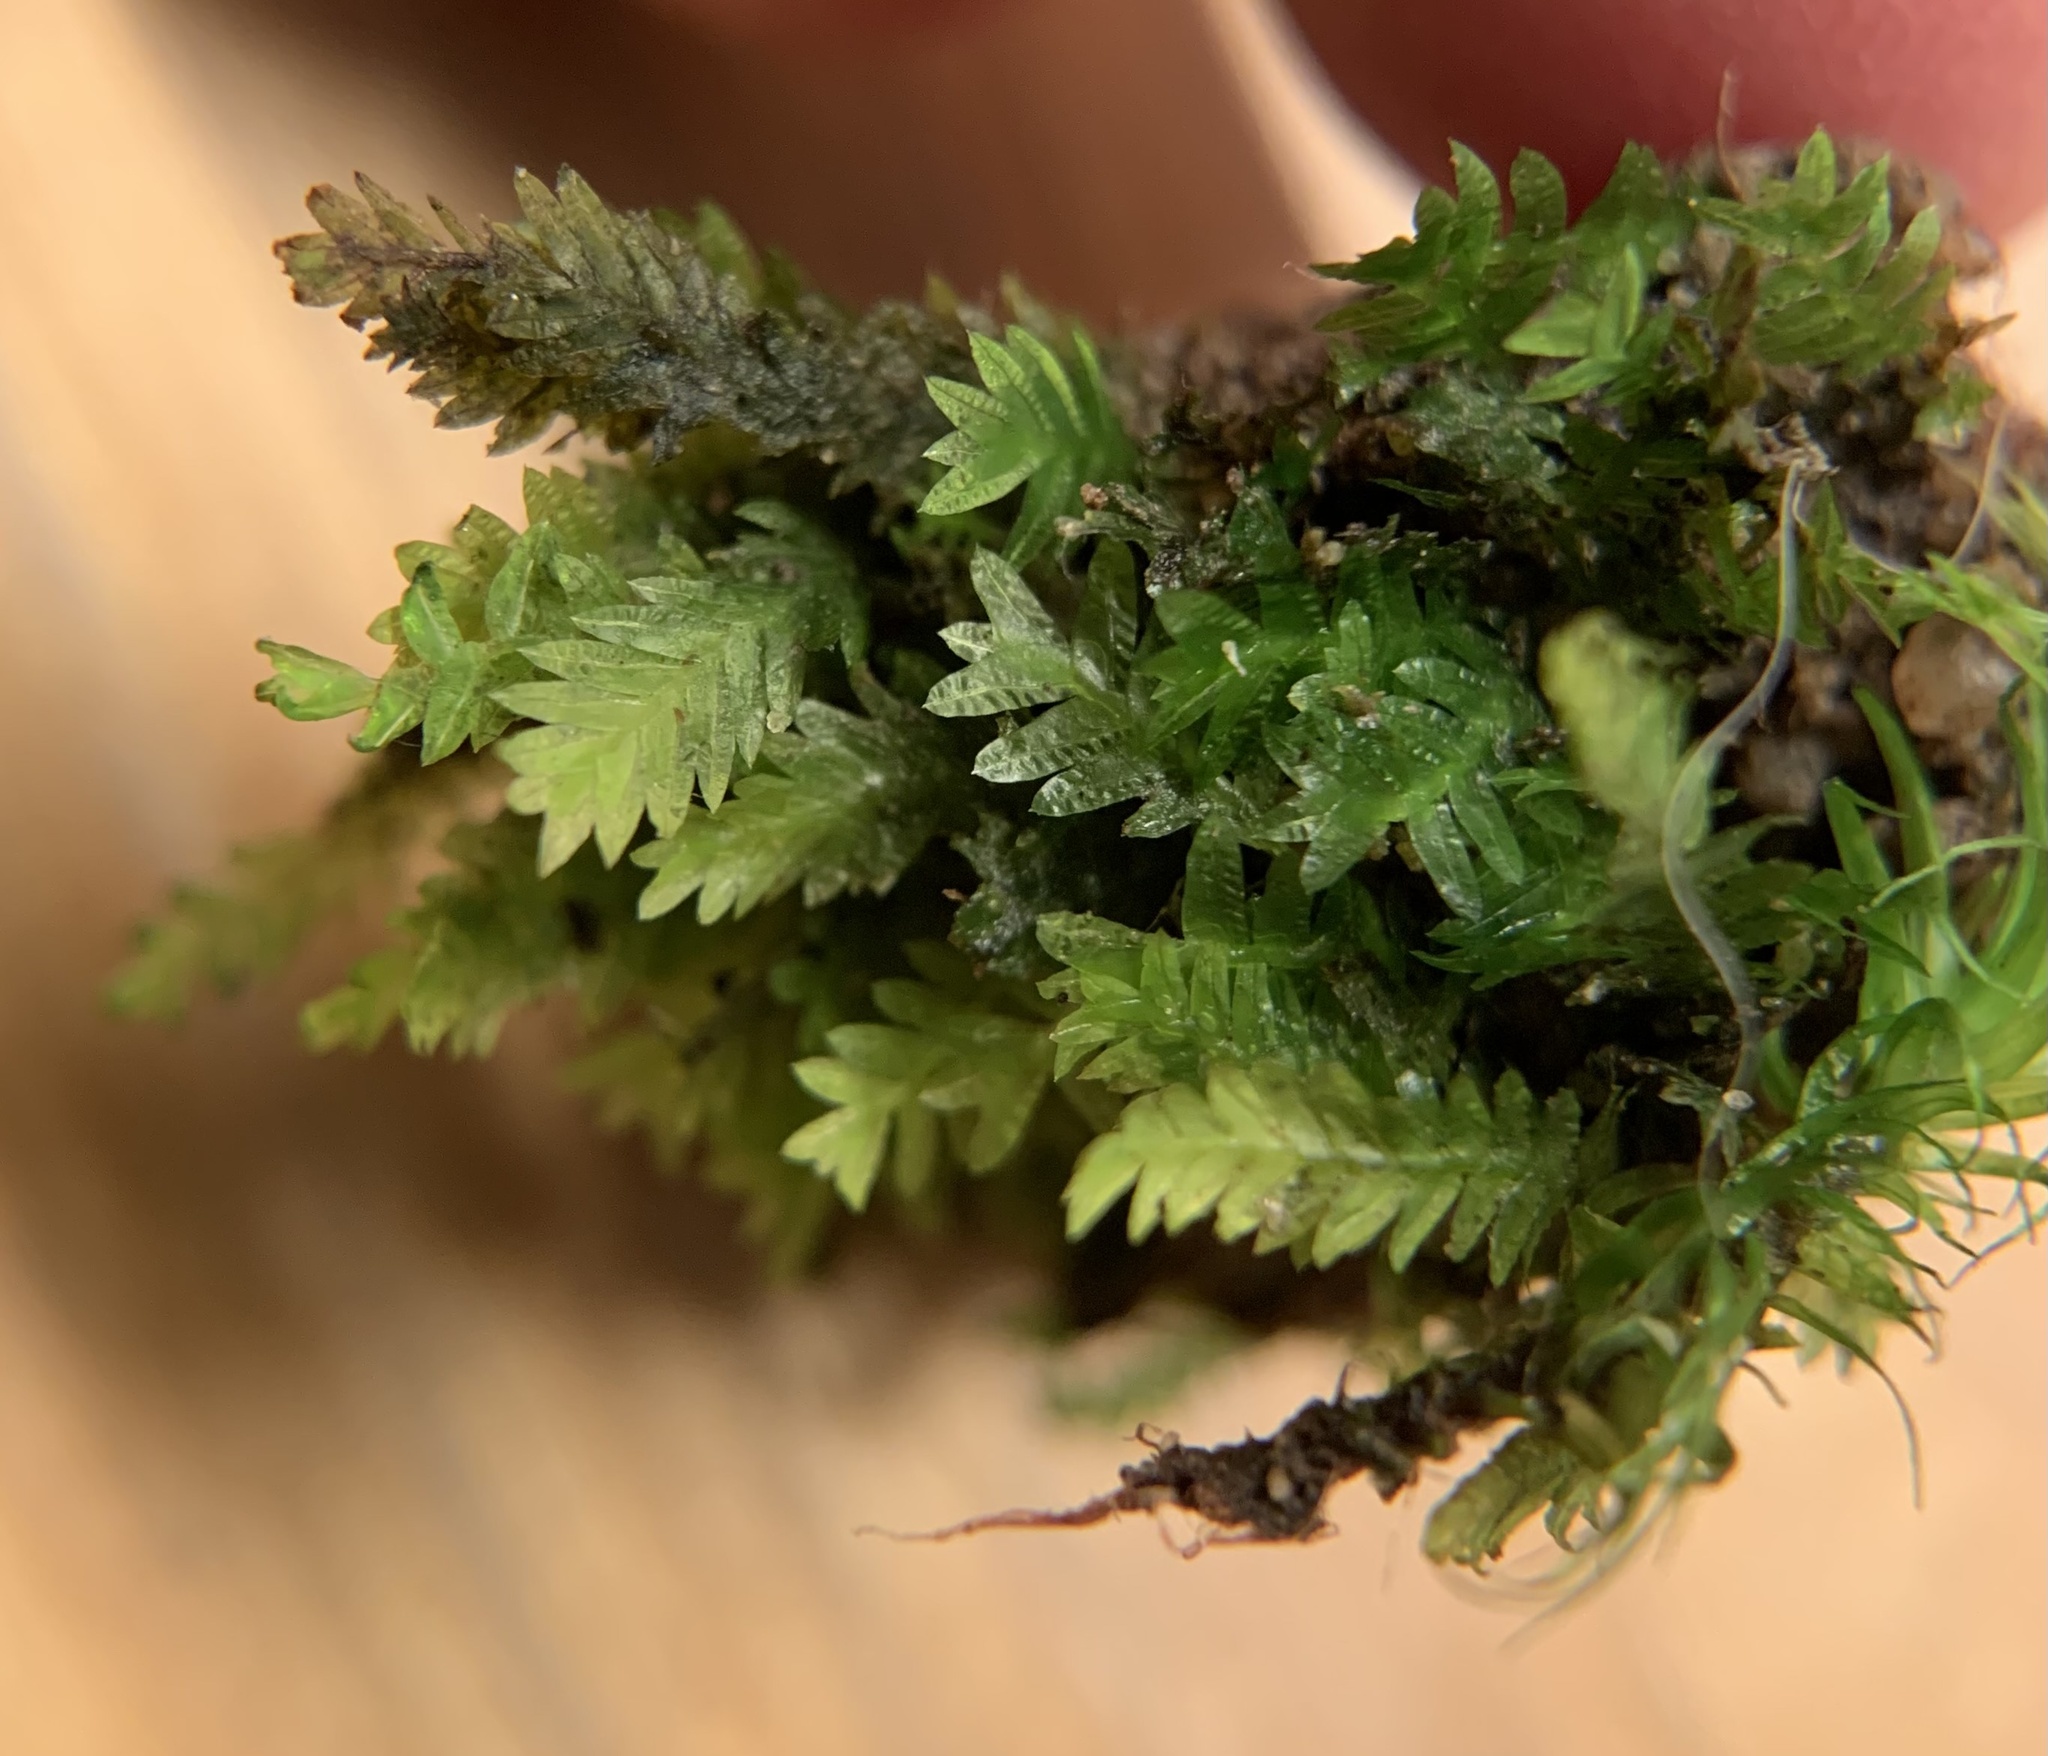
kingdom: Plantae
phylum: Bryophyta
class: Bryopsida
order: Dicranales
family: Fissidentaceae
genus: Fissidens
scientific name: Fissidens taxifolius
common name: Yew-leaved pocket moss
